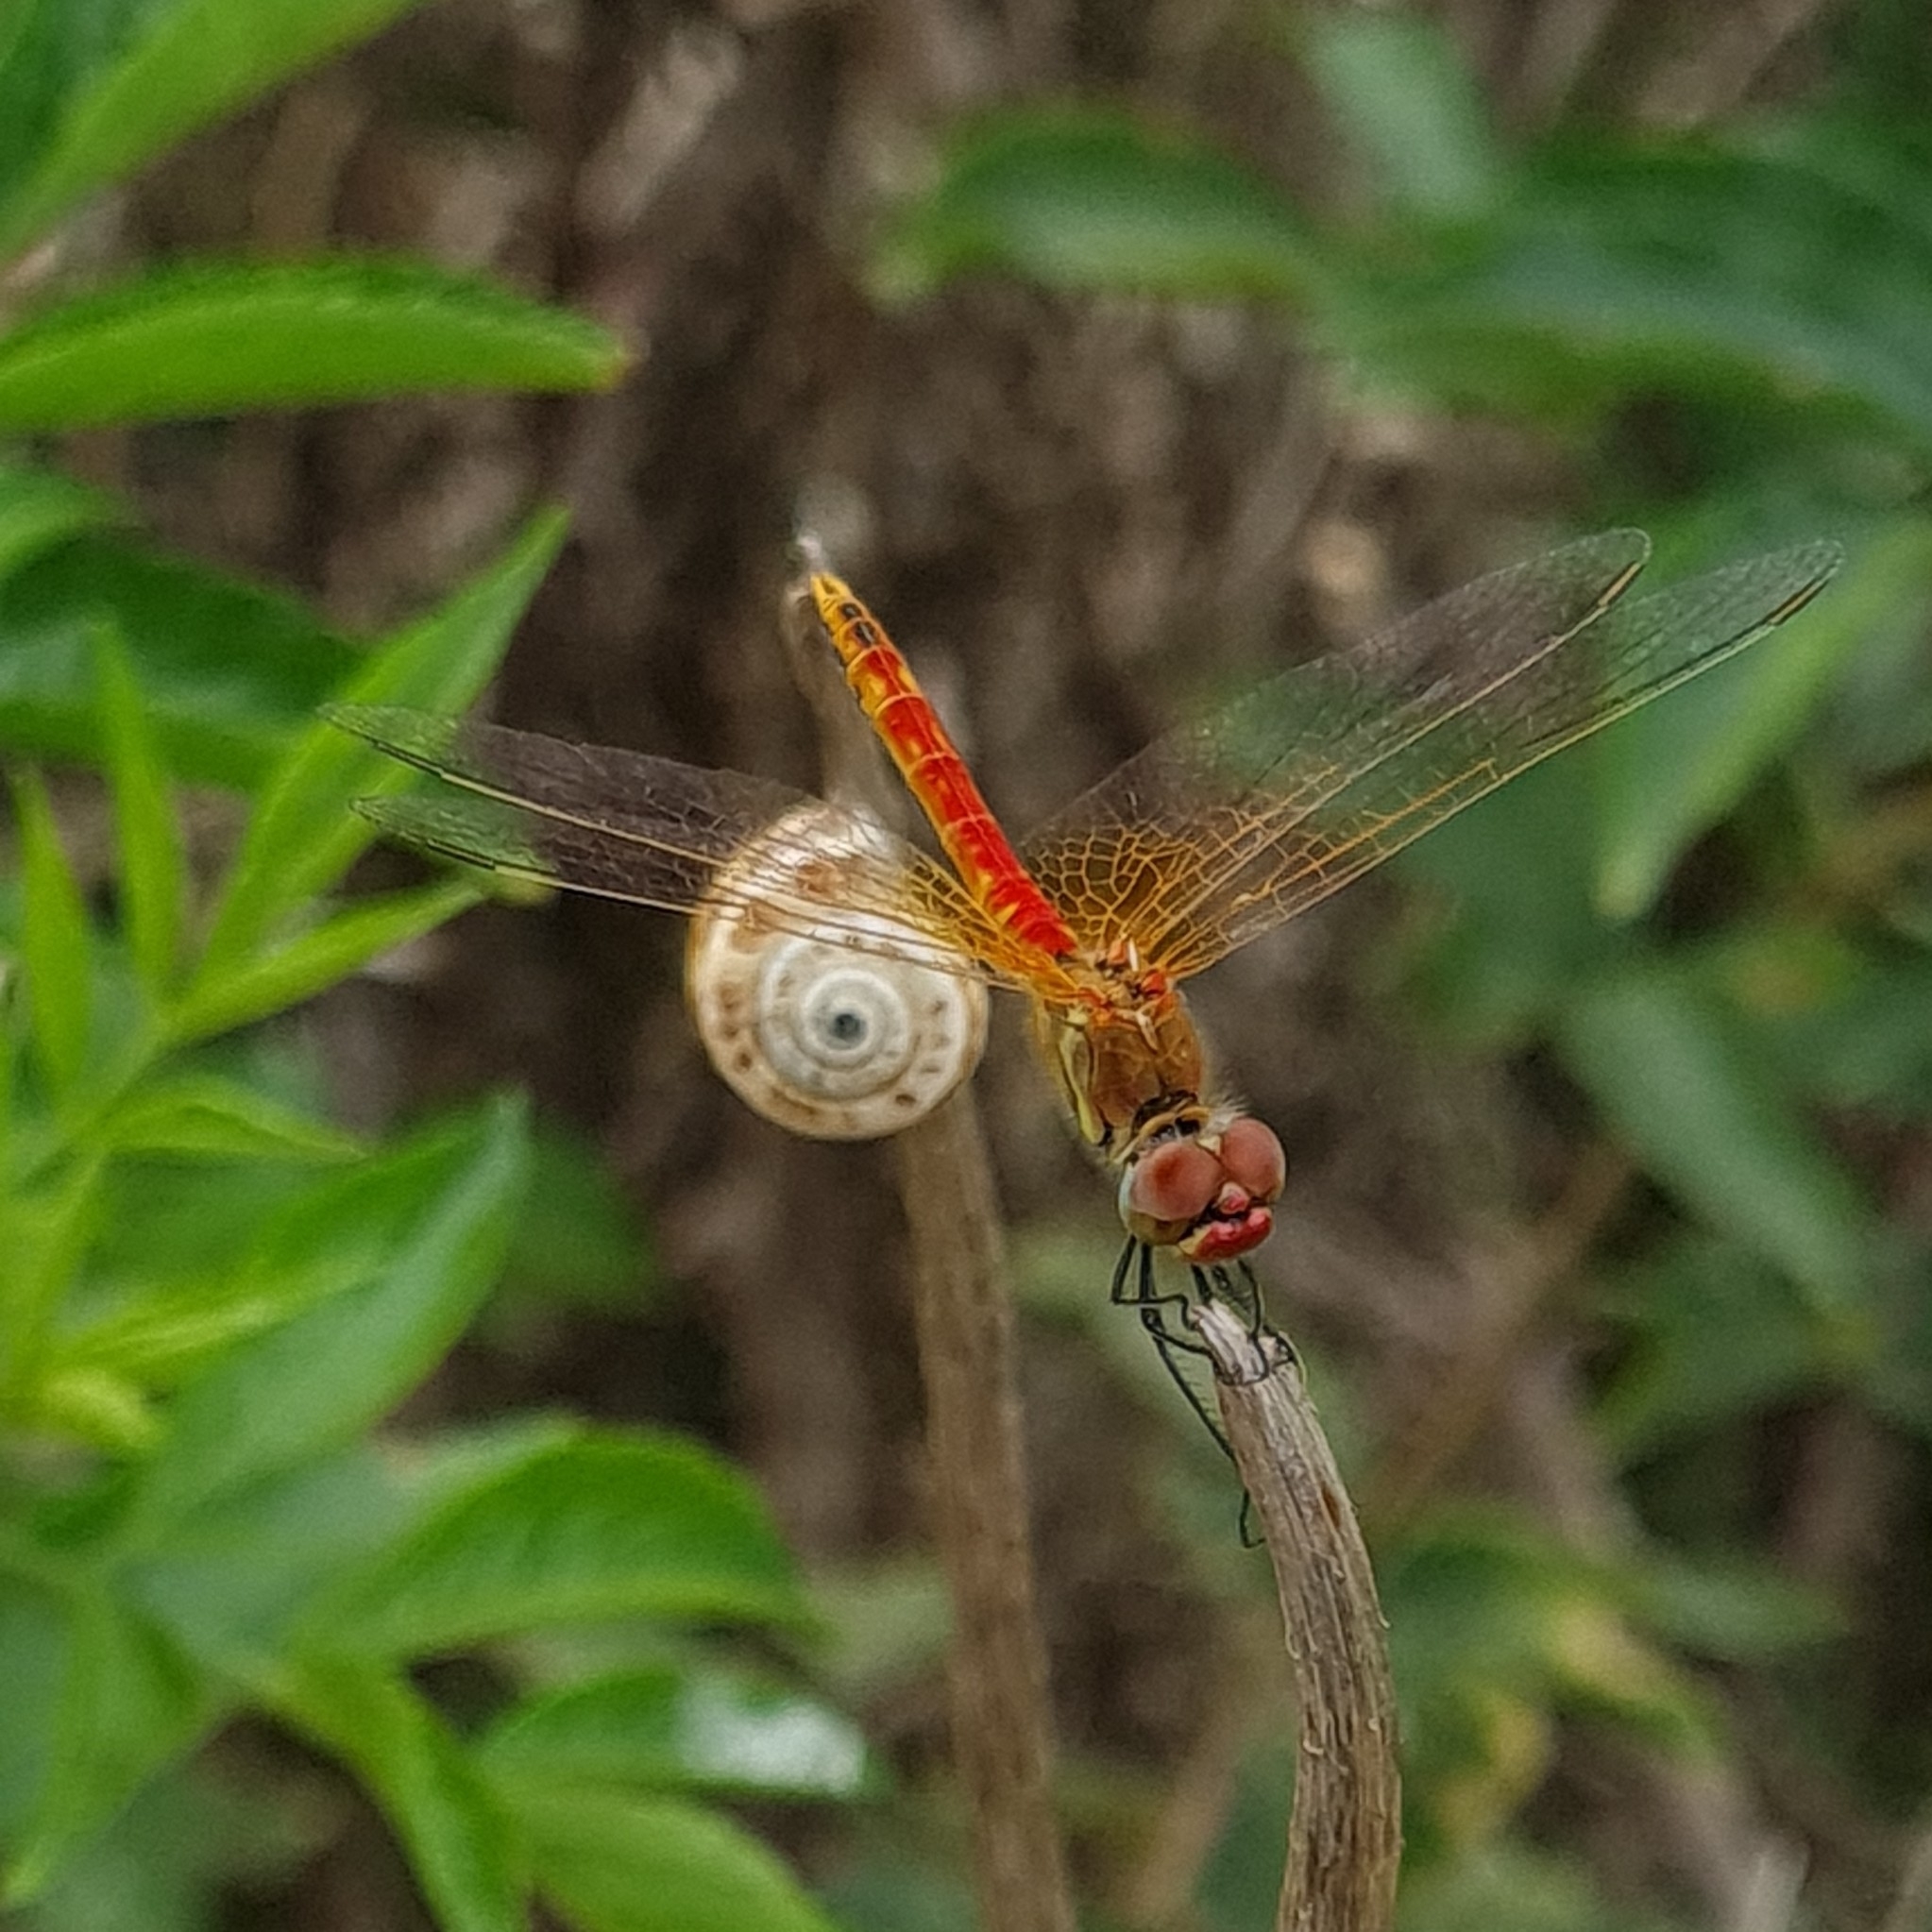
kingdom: Animalia
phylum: Arthropoda
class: Insecta
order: Odonata
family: Libellulidae
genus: Sympetrum
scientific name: Sympetrum fonscolombii
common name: Red-veined darter
